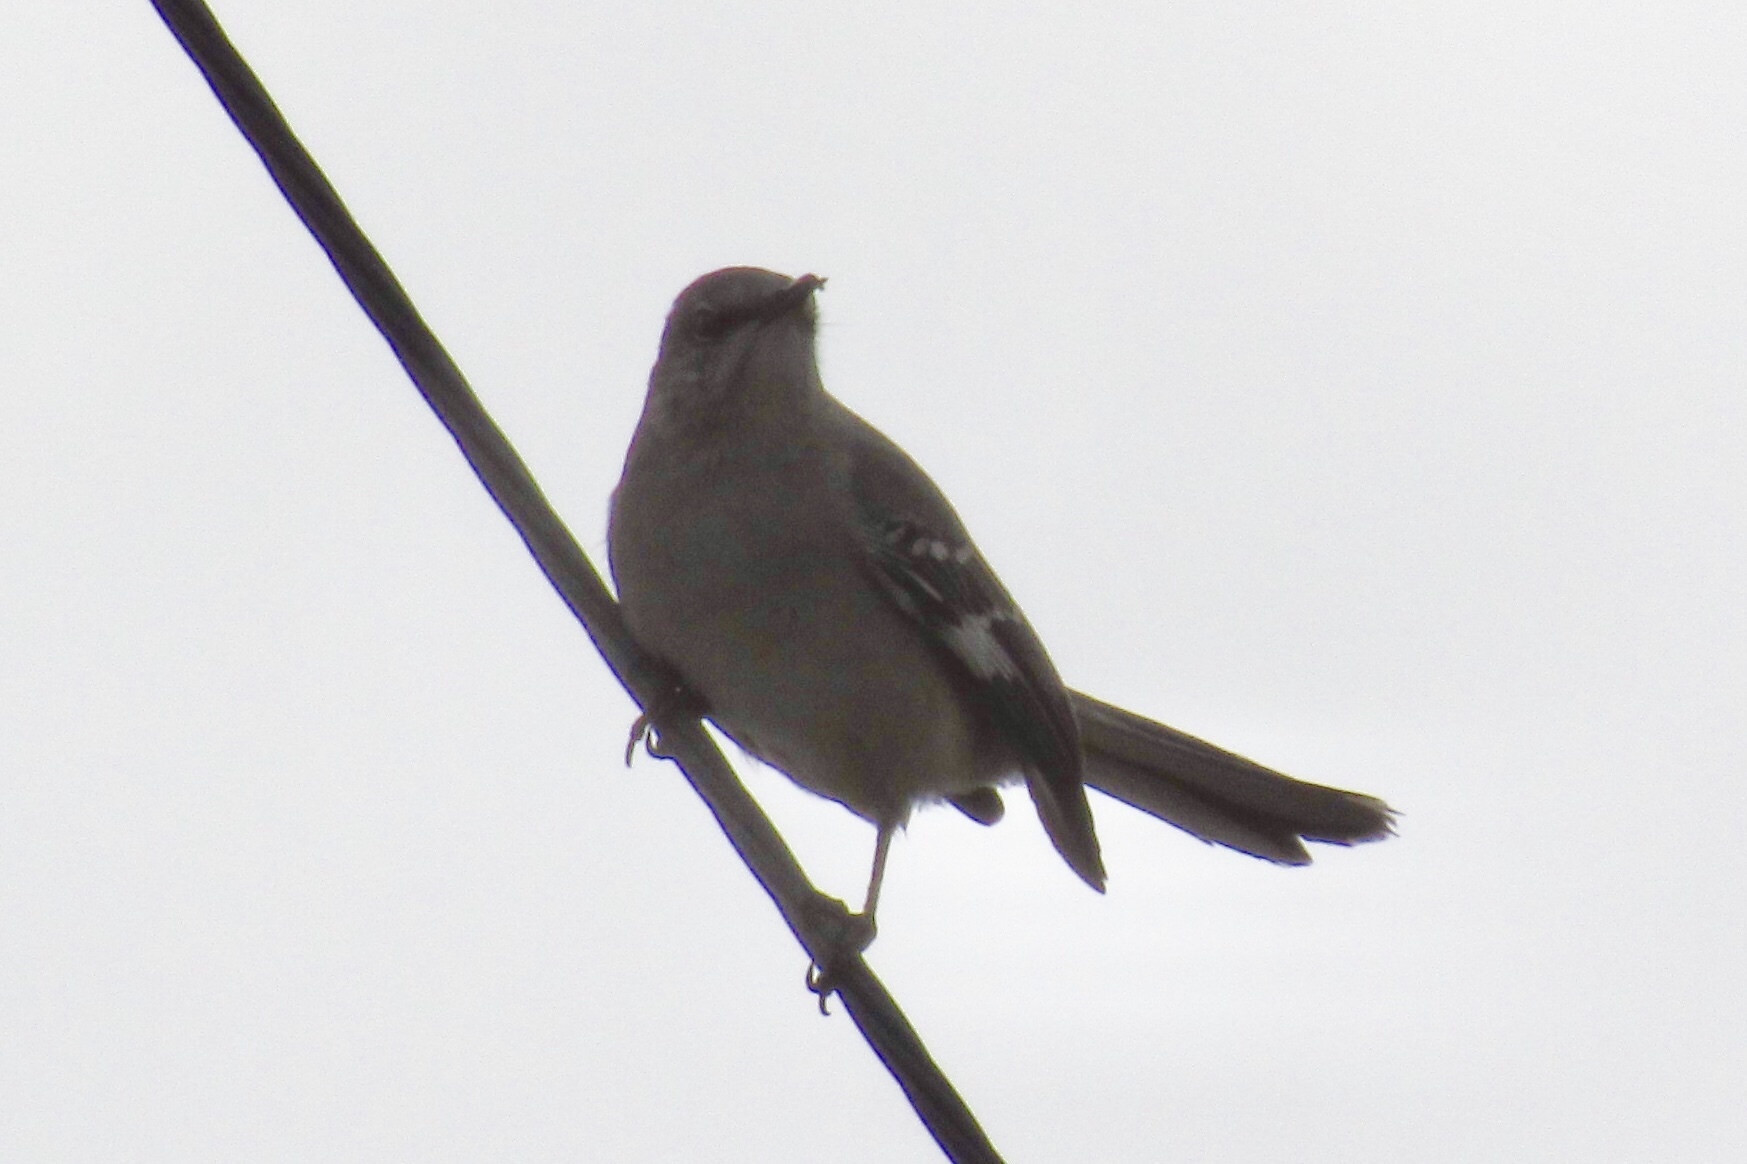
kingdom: Animalia
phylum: Chordata
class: Aves
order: Passeriformes
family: Mimidae
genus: Mimus
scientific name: Mimus polyglottos
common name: Northern mockingbird
